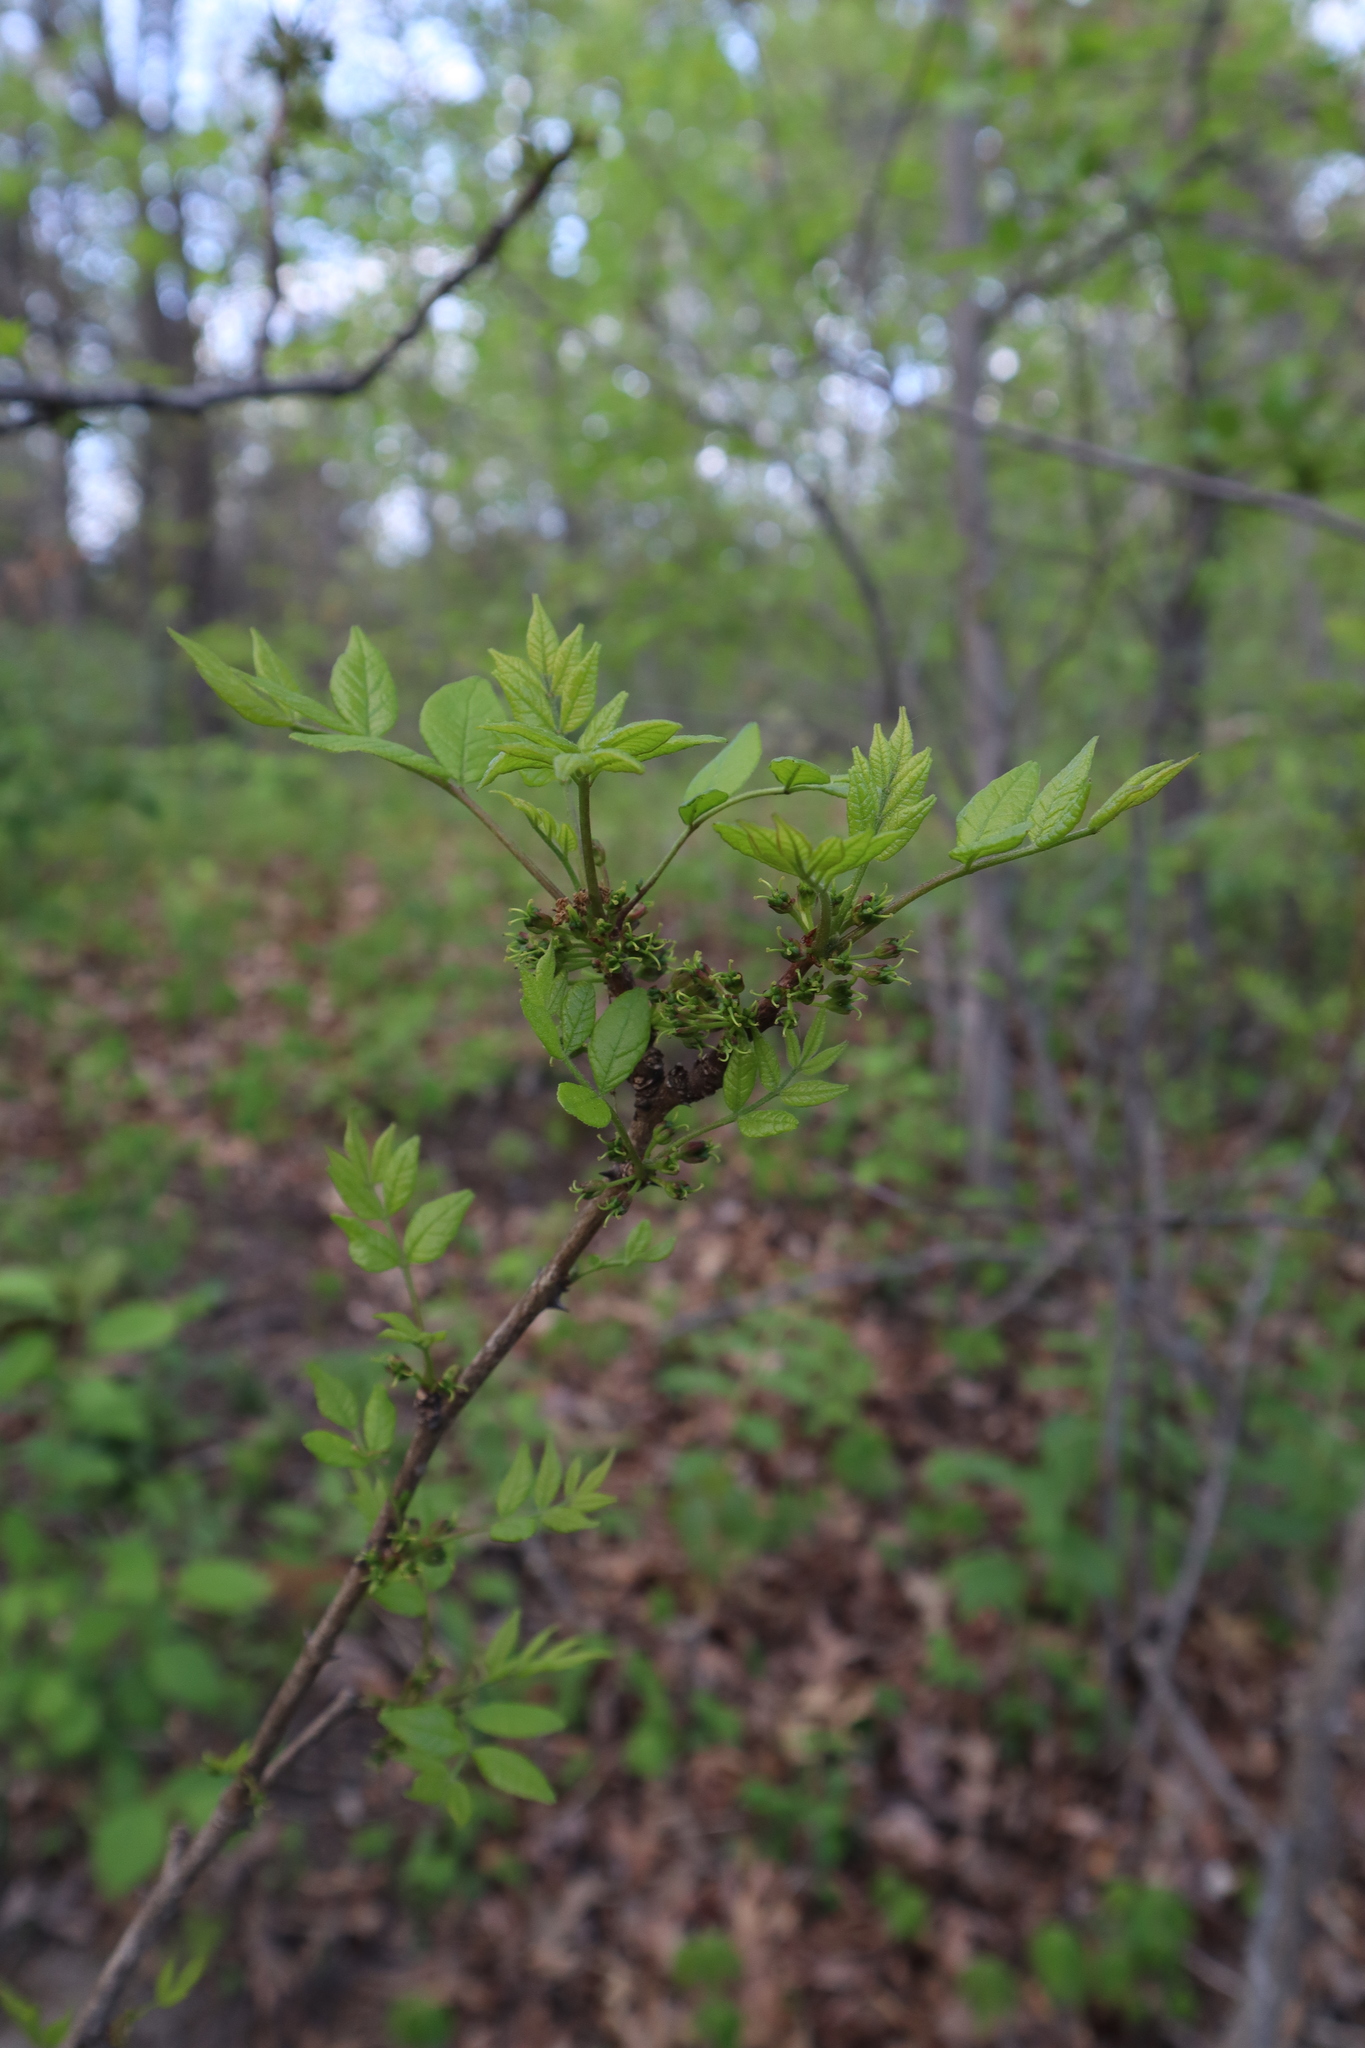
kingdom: Plantae
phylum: Tracheophyta
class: Magnoliopsida
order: Sapindales
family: Rutaceae
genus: Zanthoxylum
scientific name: Zanthoxylum americanum
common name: Northern prickly-ash
